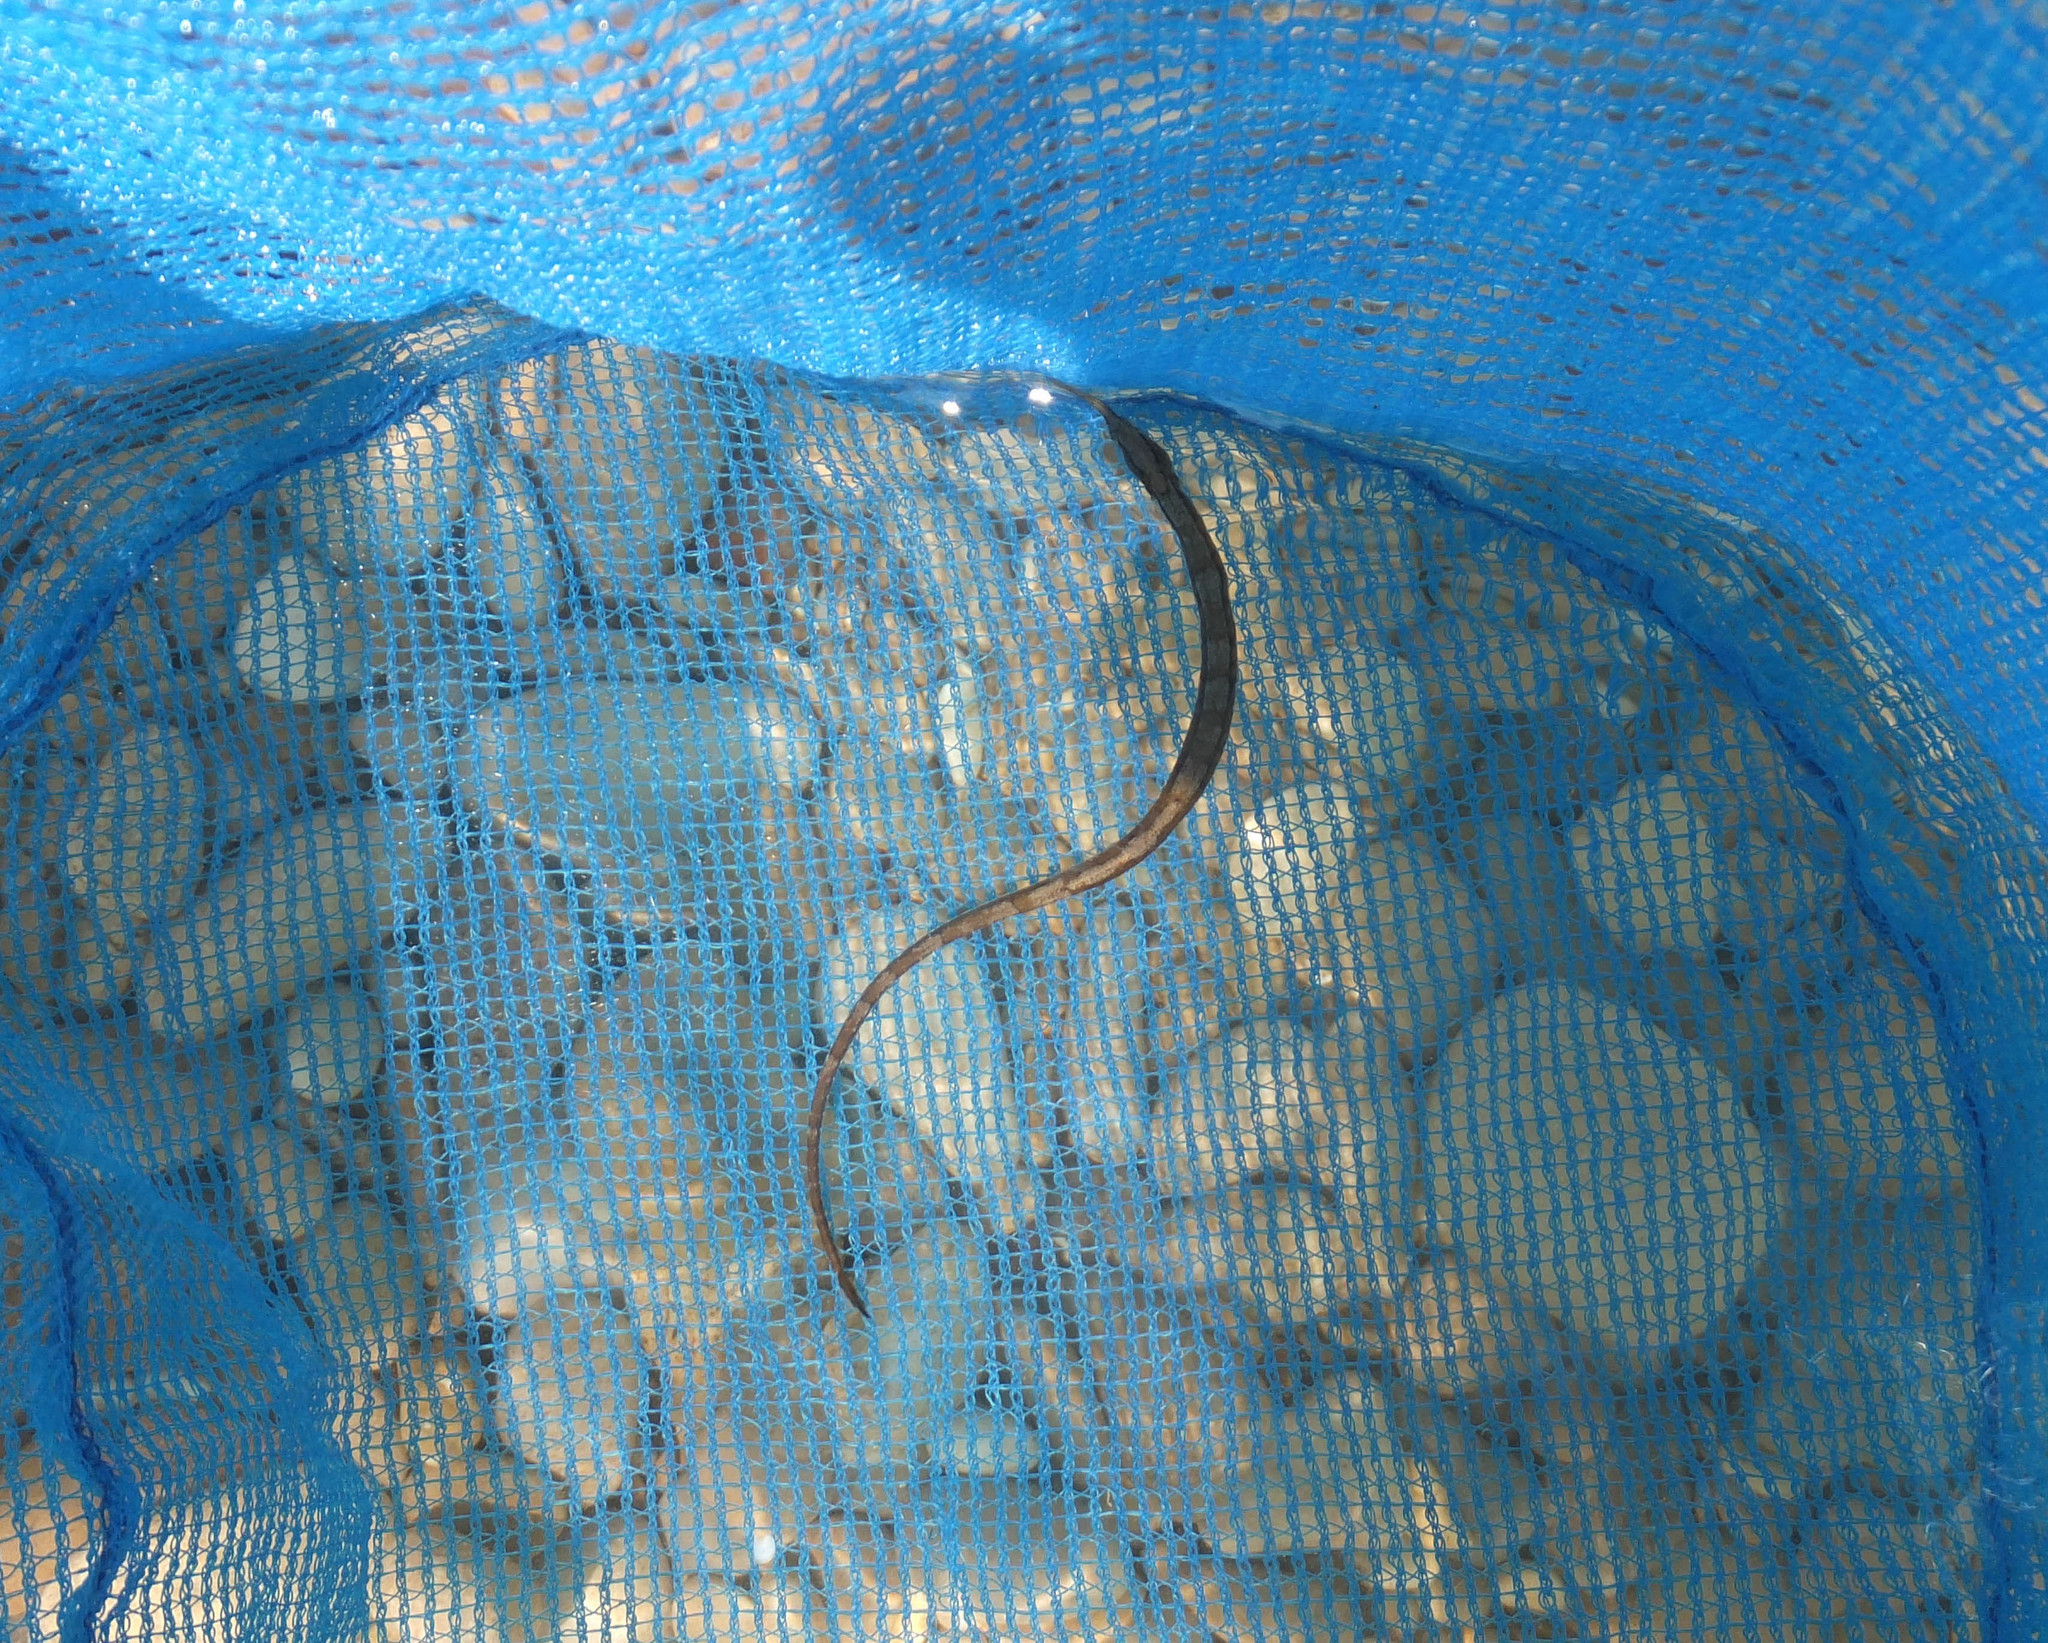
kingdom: Animalia
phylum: Chordata
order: Syngnathiformes
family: Syngnathidae
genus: Syngnathus
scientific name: Syngnathus
